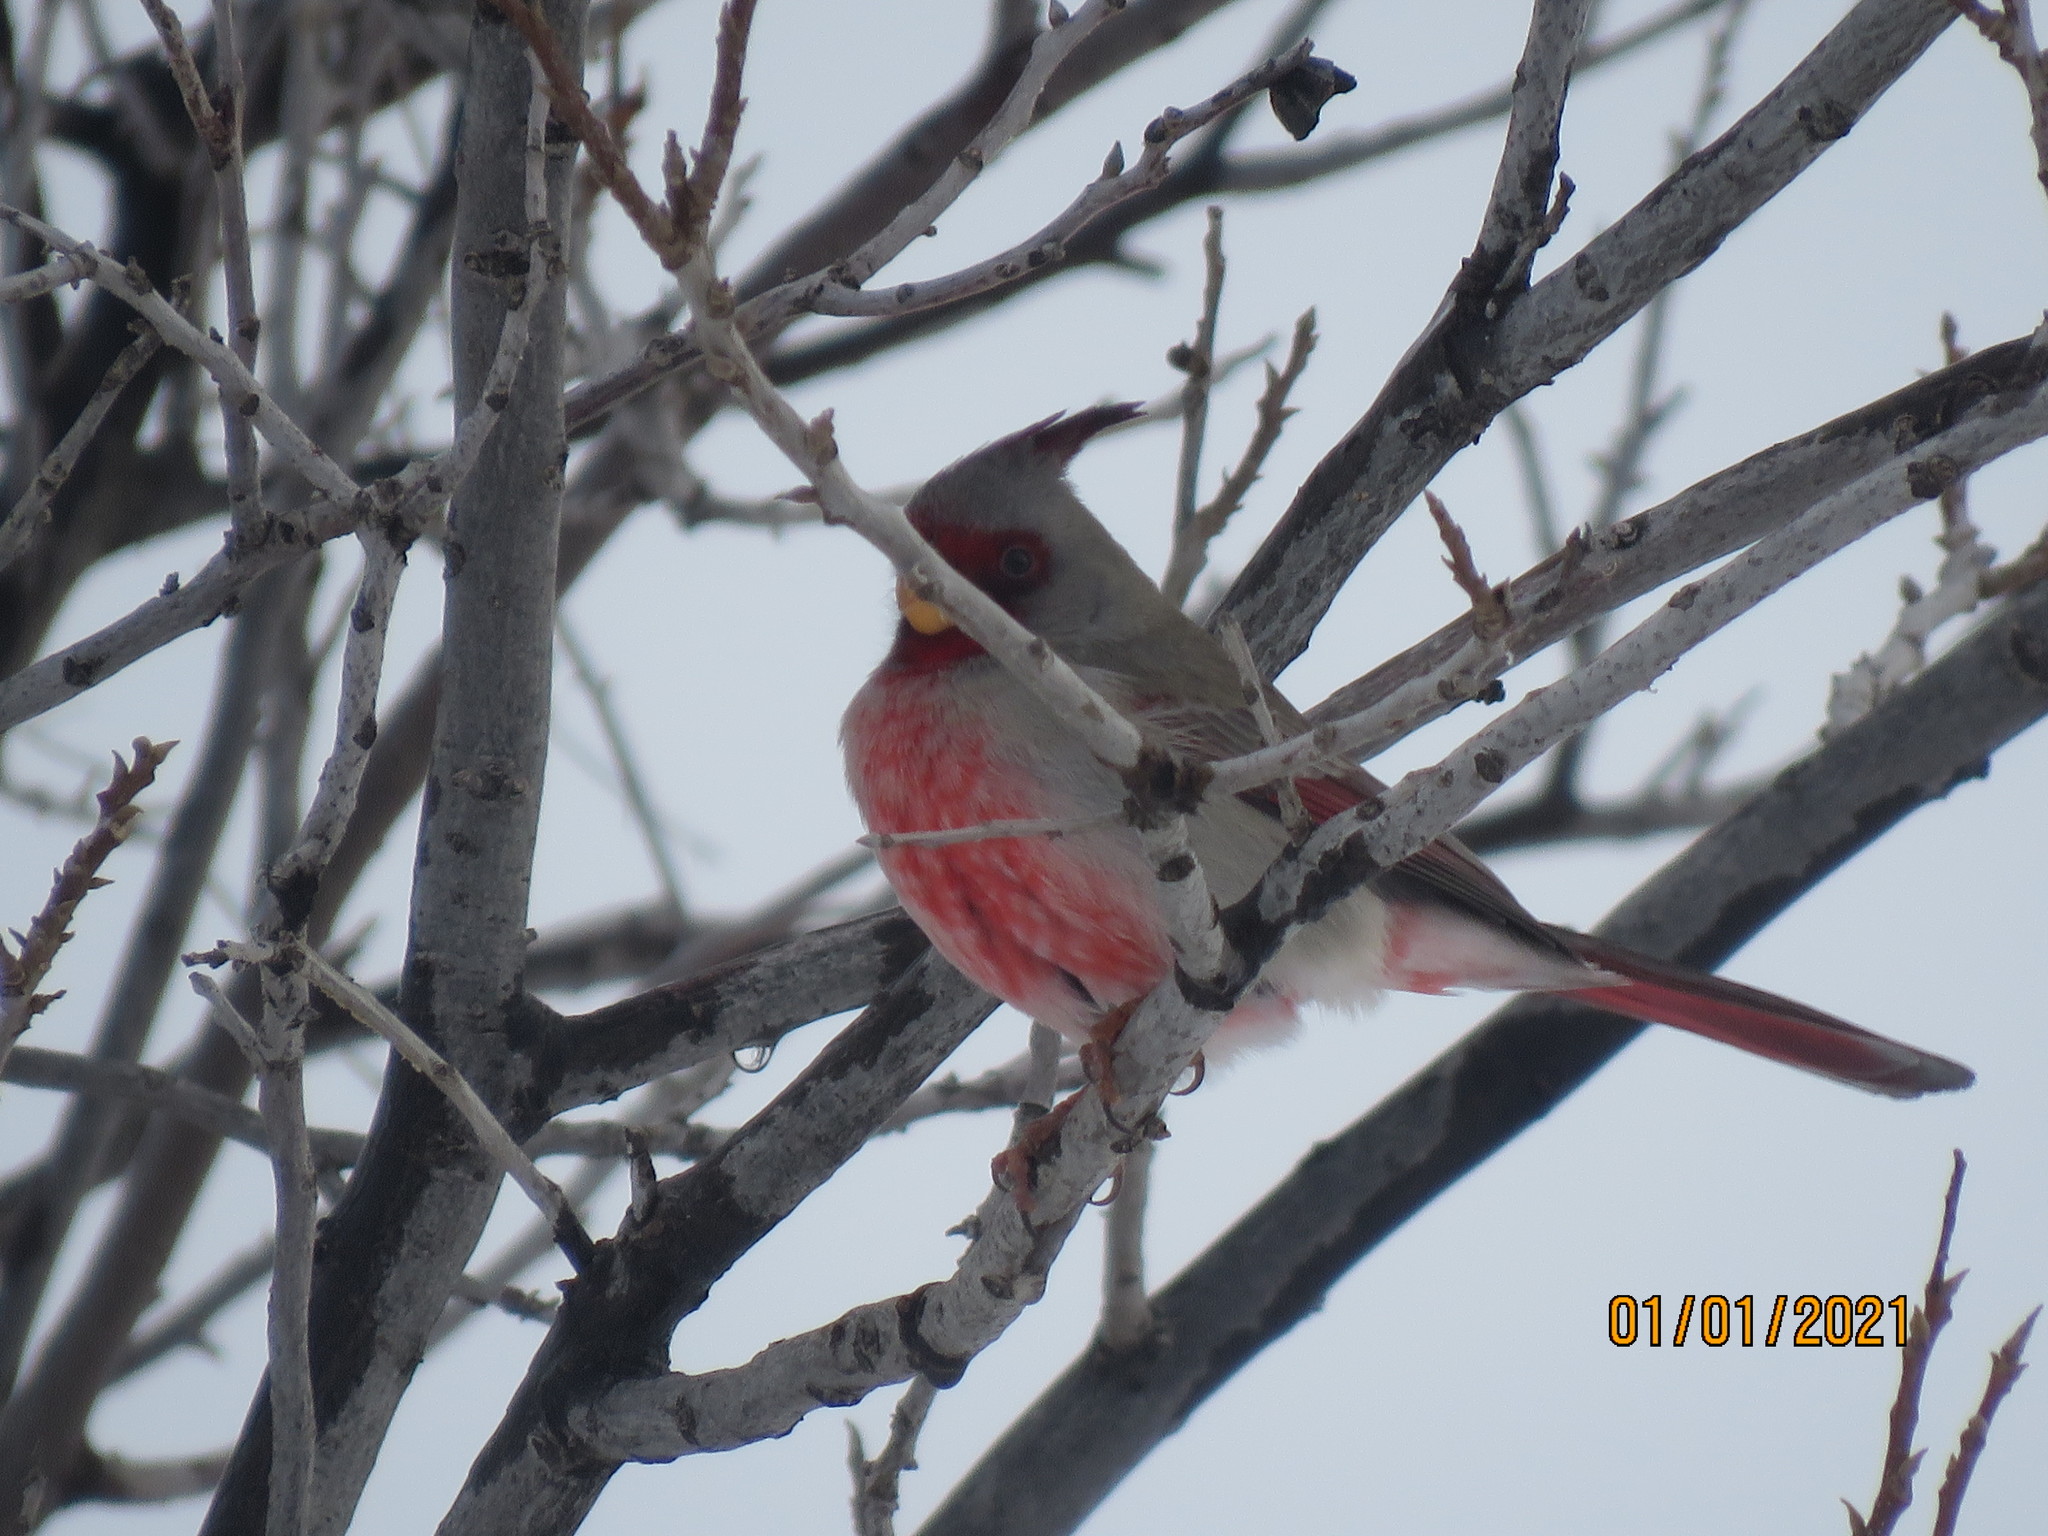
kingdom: Animalia
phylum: Chordata
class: Aves
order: Passeriformes
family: Cardinalidae
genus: Cardinalis
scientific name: Cardinalis sinuatus
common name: Pyrrhuloxia
